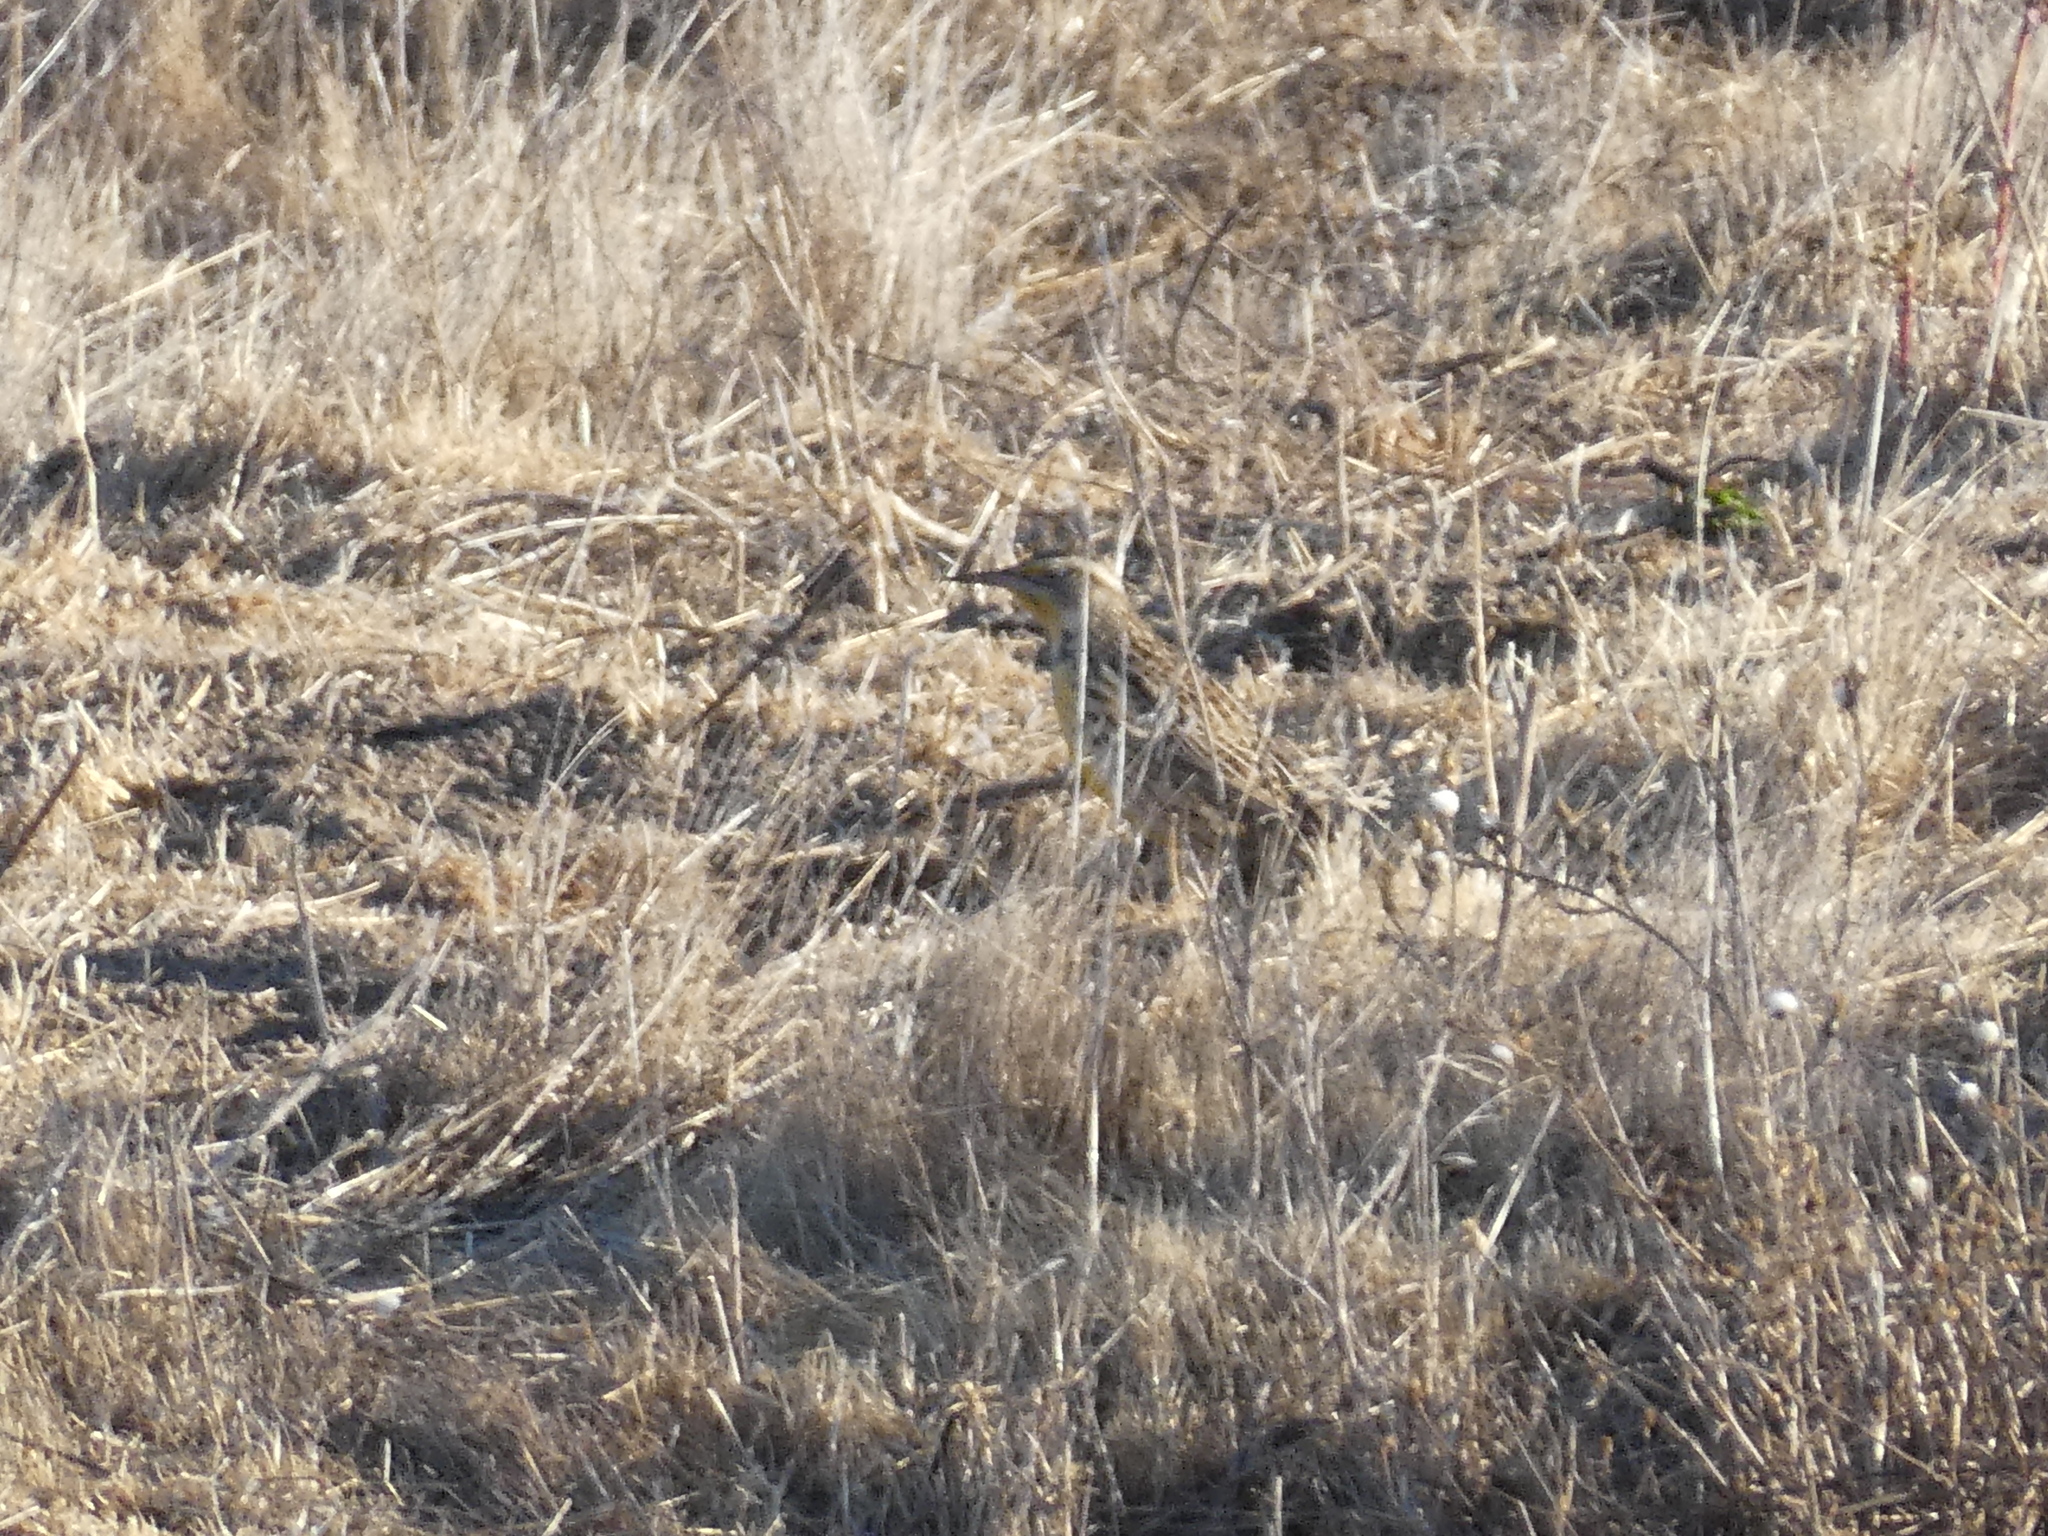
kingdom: Animalia
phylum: Chordata
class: Aves
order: Passeriformes
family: Icteridae
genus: Sturnella
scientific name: Sturnella neglecta
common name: Western meadowlark
